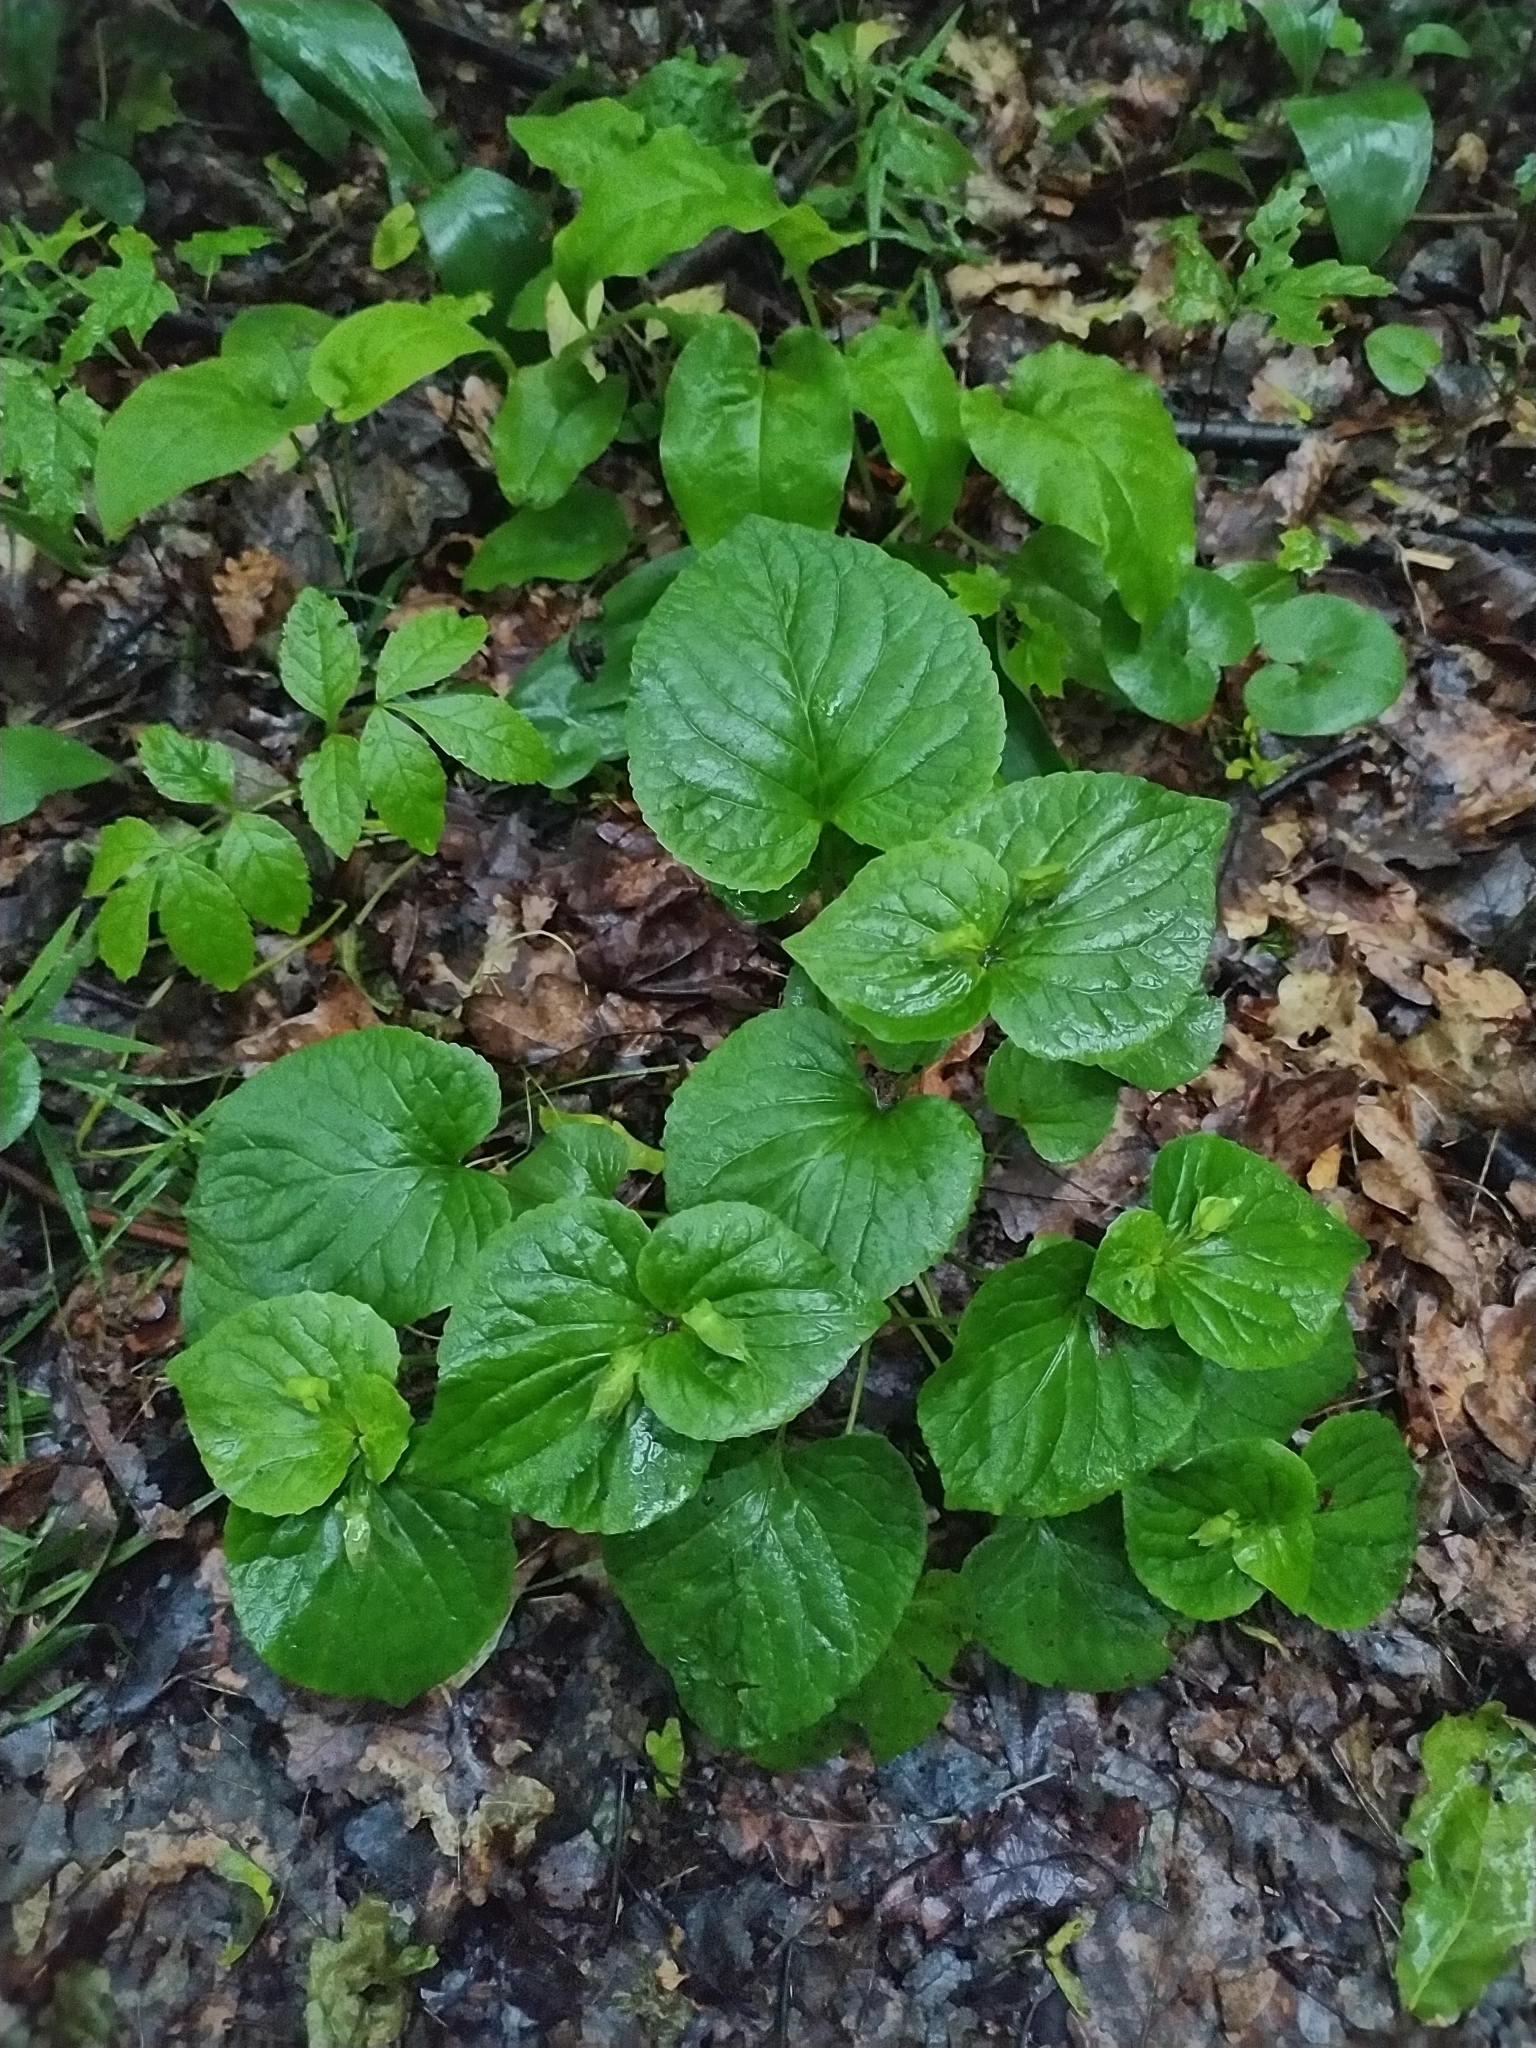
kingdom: Plantae
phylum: Tracheophyta
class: Magnoliopsida
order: Malpighiales
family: Violaceae
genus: Viola
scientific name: Viola mirabilis
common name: Wonder violet
